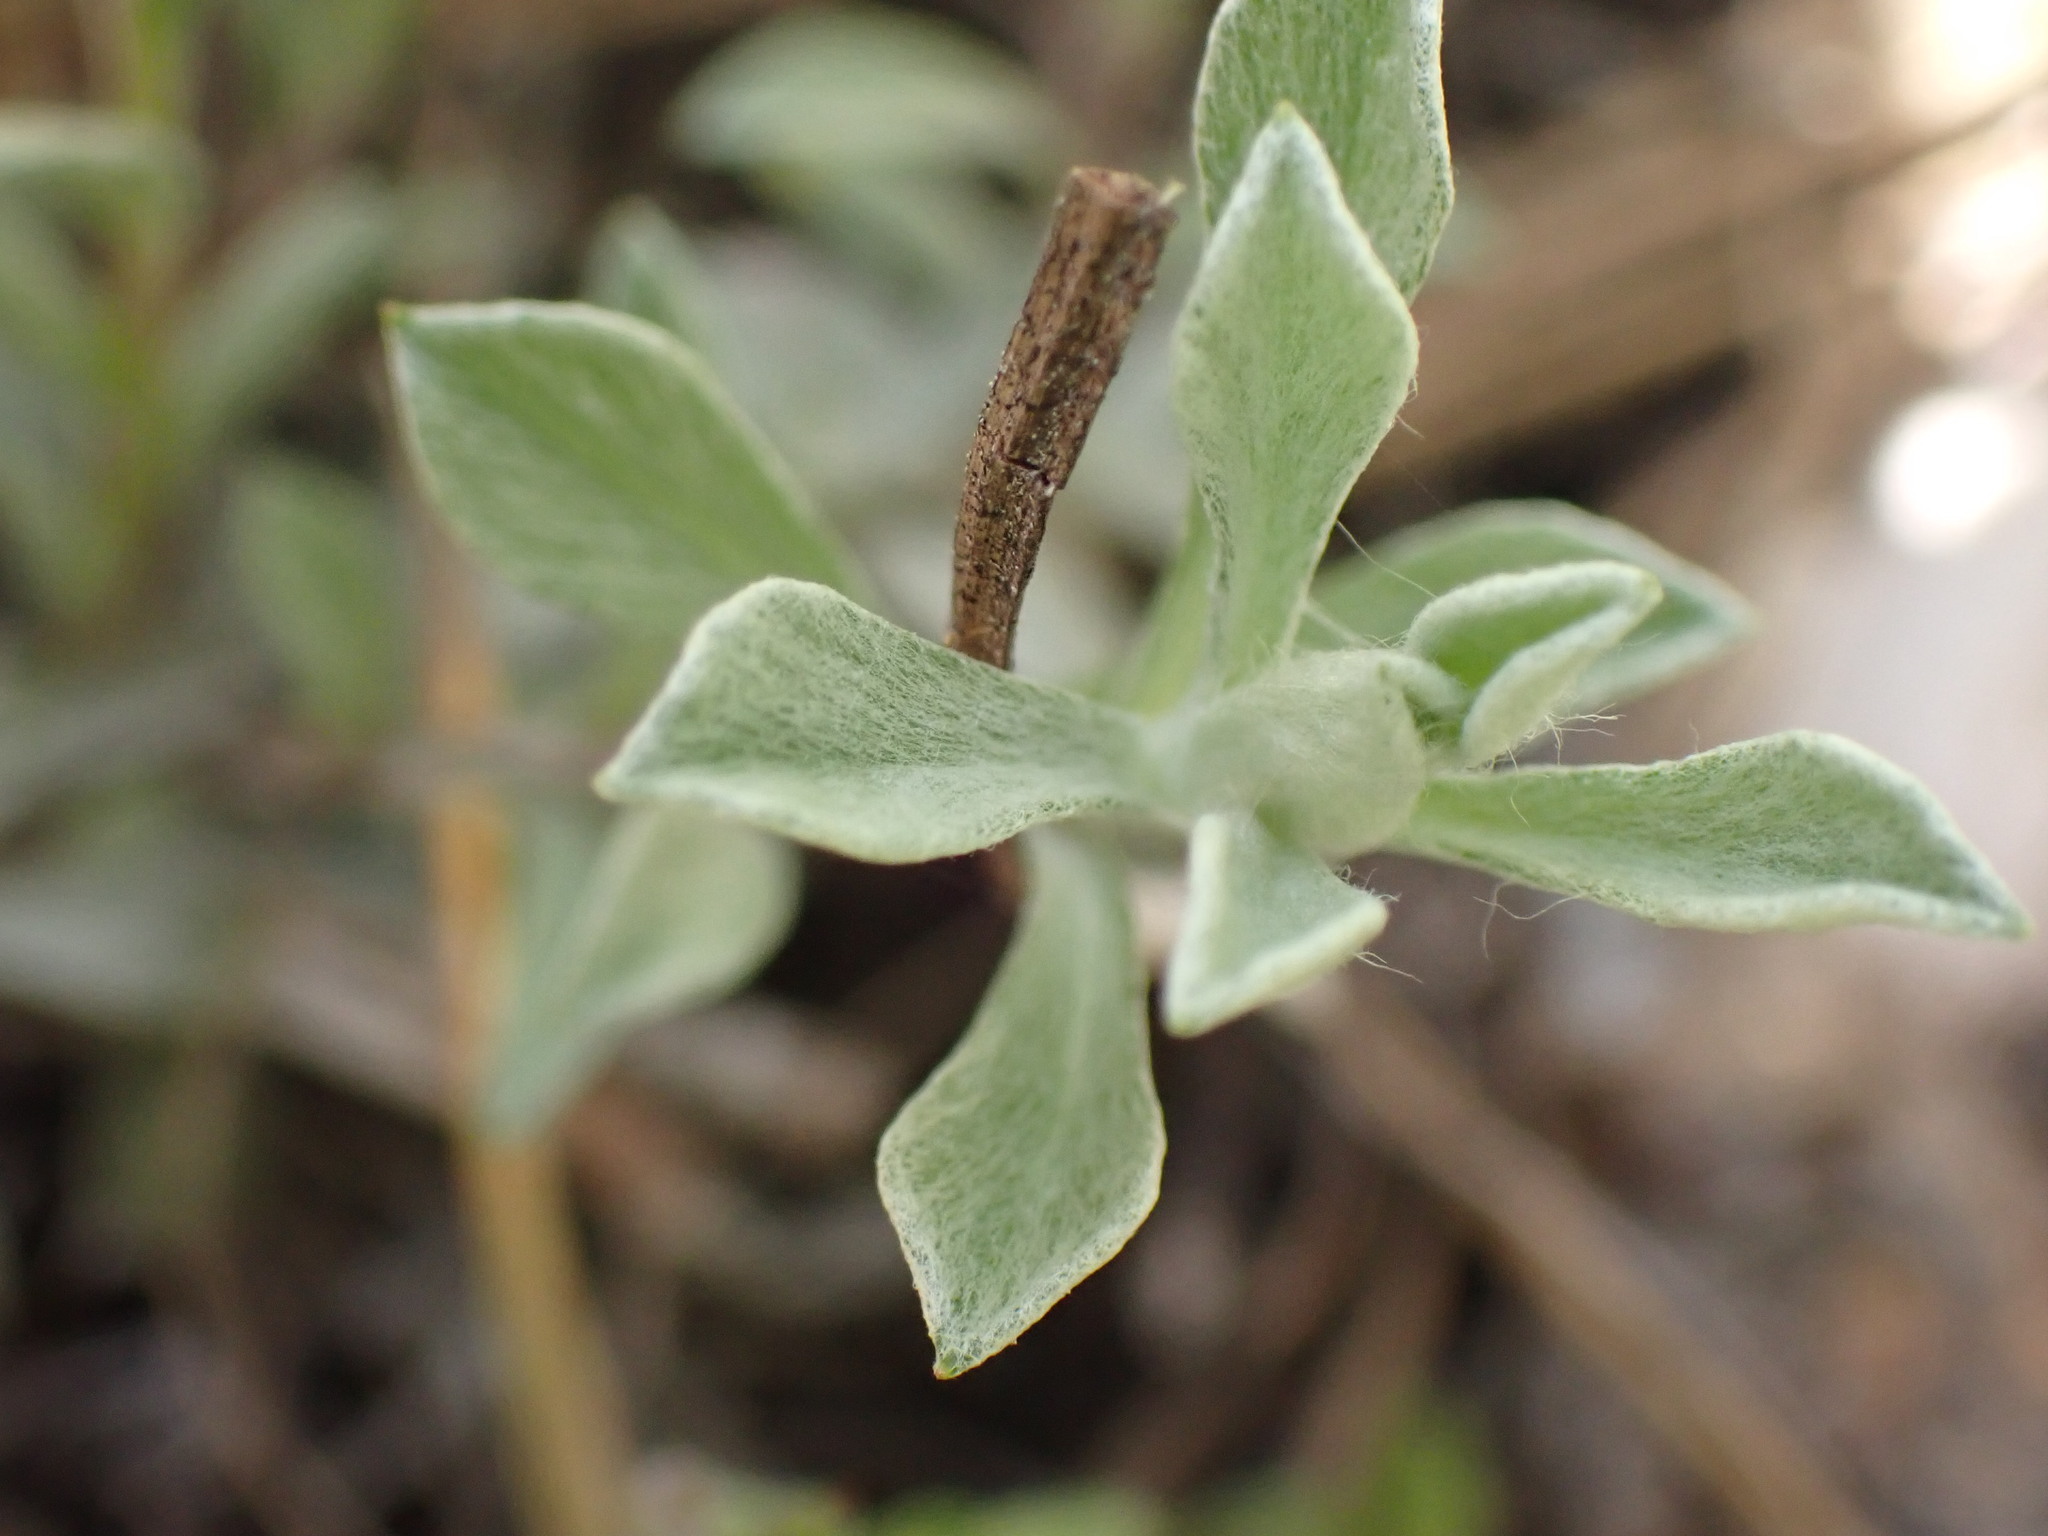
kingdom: Plantae
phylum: Tracheophyta
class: Magnoliopsida
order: Asterales
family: Asteraceae
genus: Antennaria
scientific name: Antennaria umbrinella
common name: Brown pussytoes
